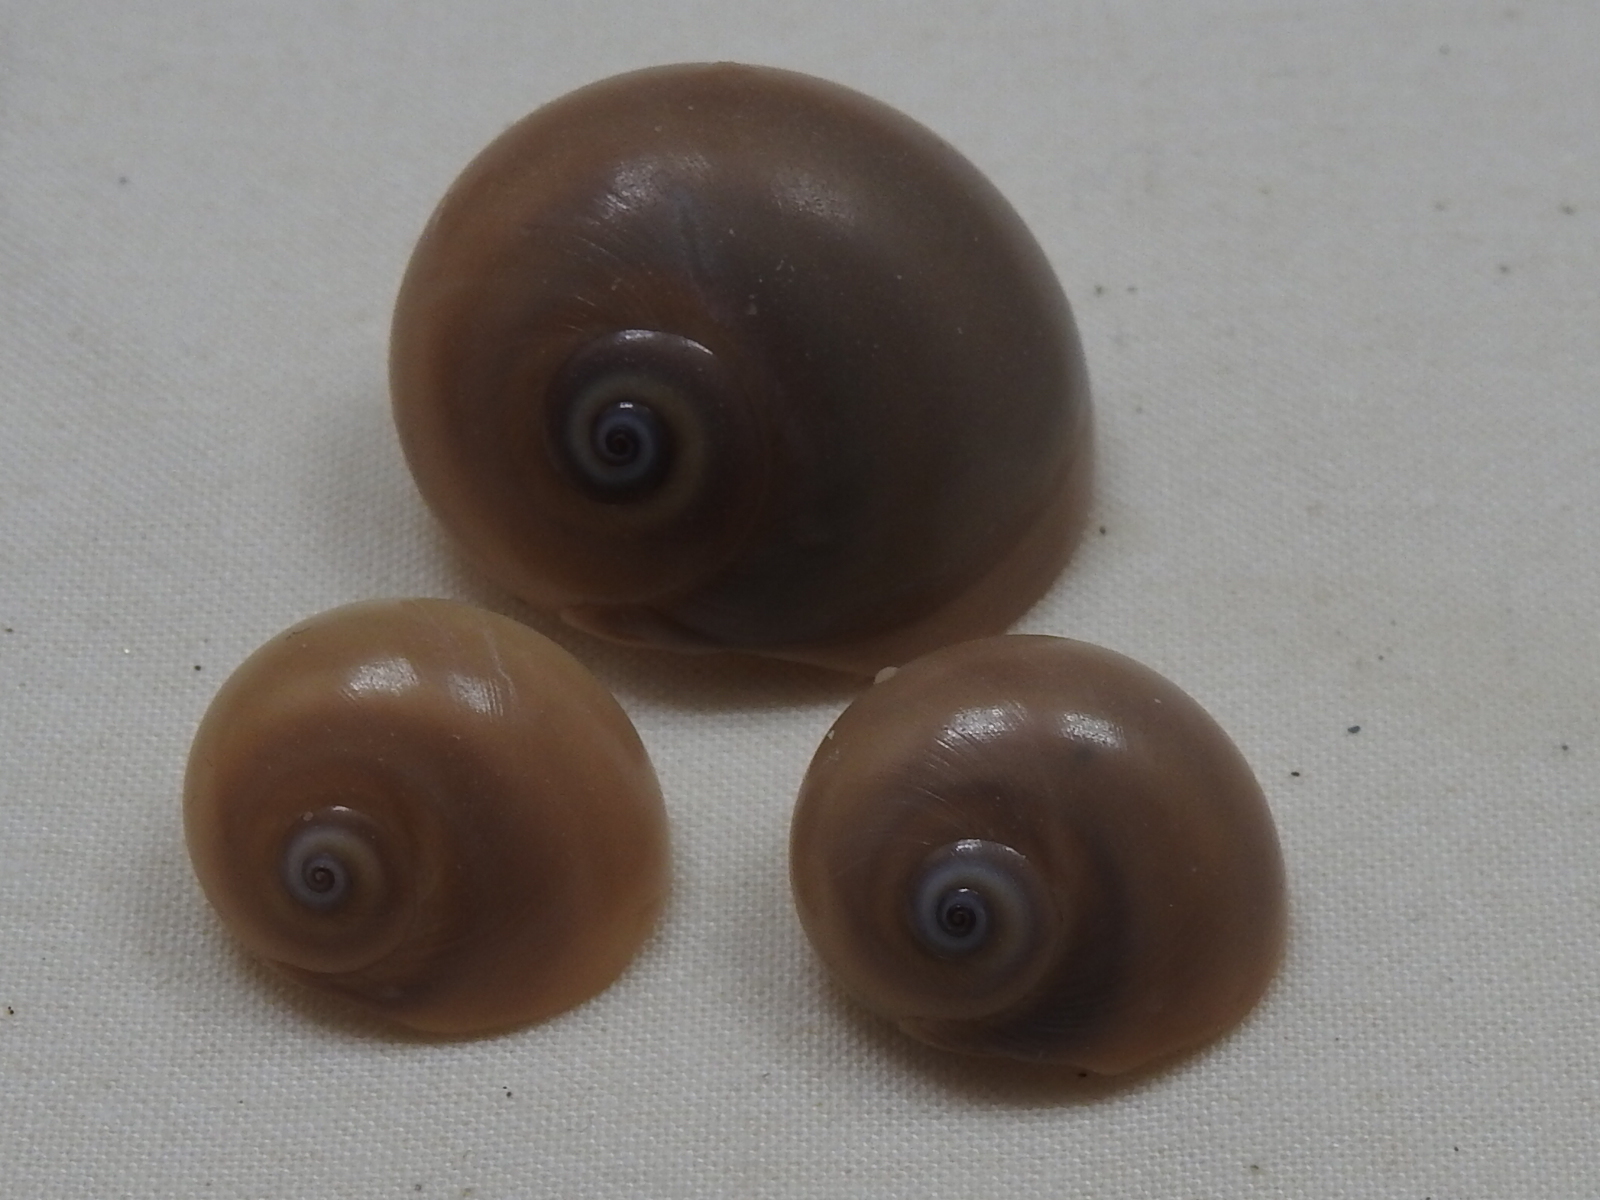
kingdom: Animalia
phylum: Mollusca
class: Gastropoda
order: Littorinimorpha
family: Naticidae
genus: Neverita
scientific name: Neverita duplicata
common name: Lobed moonsnail
